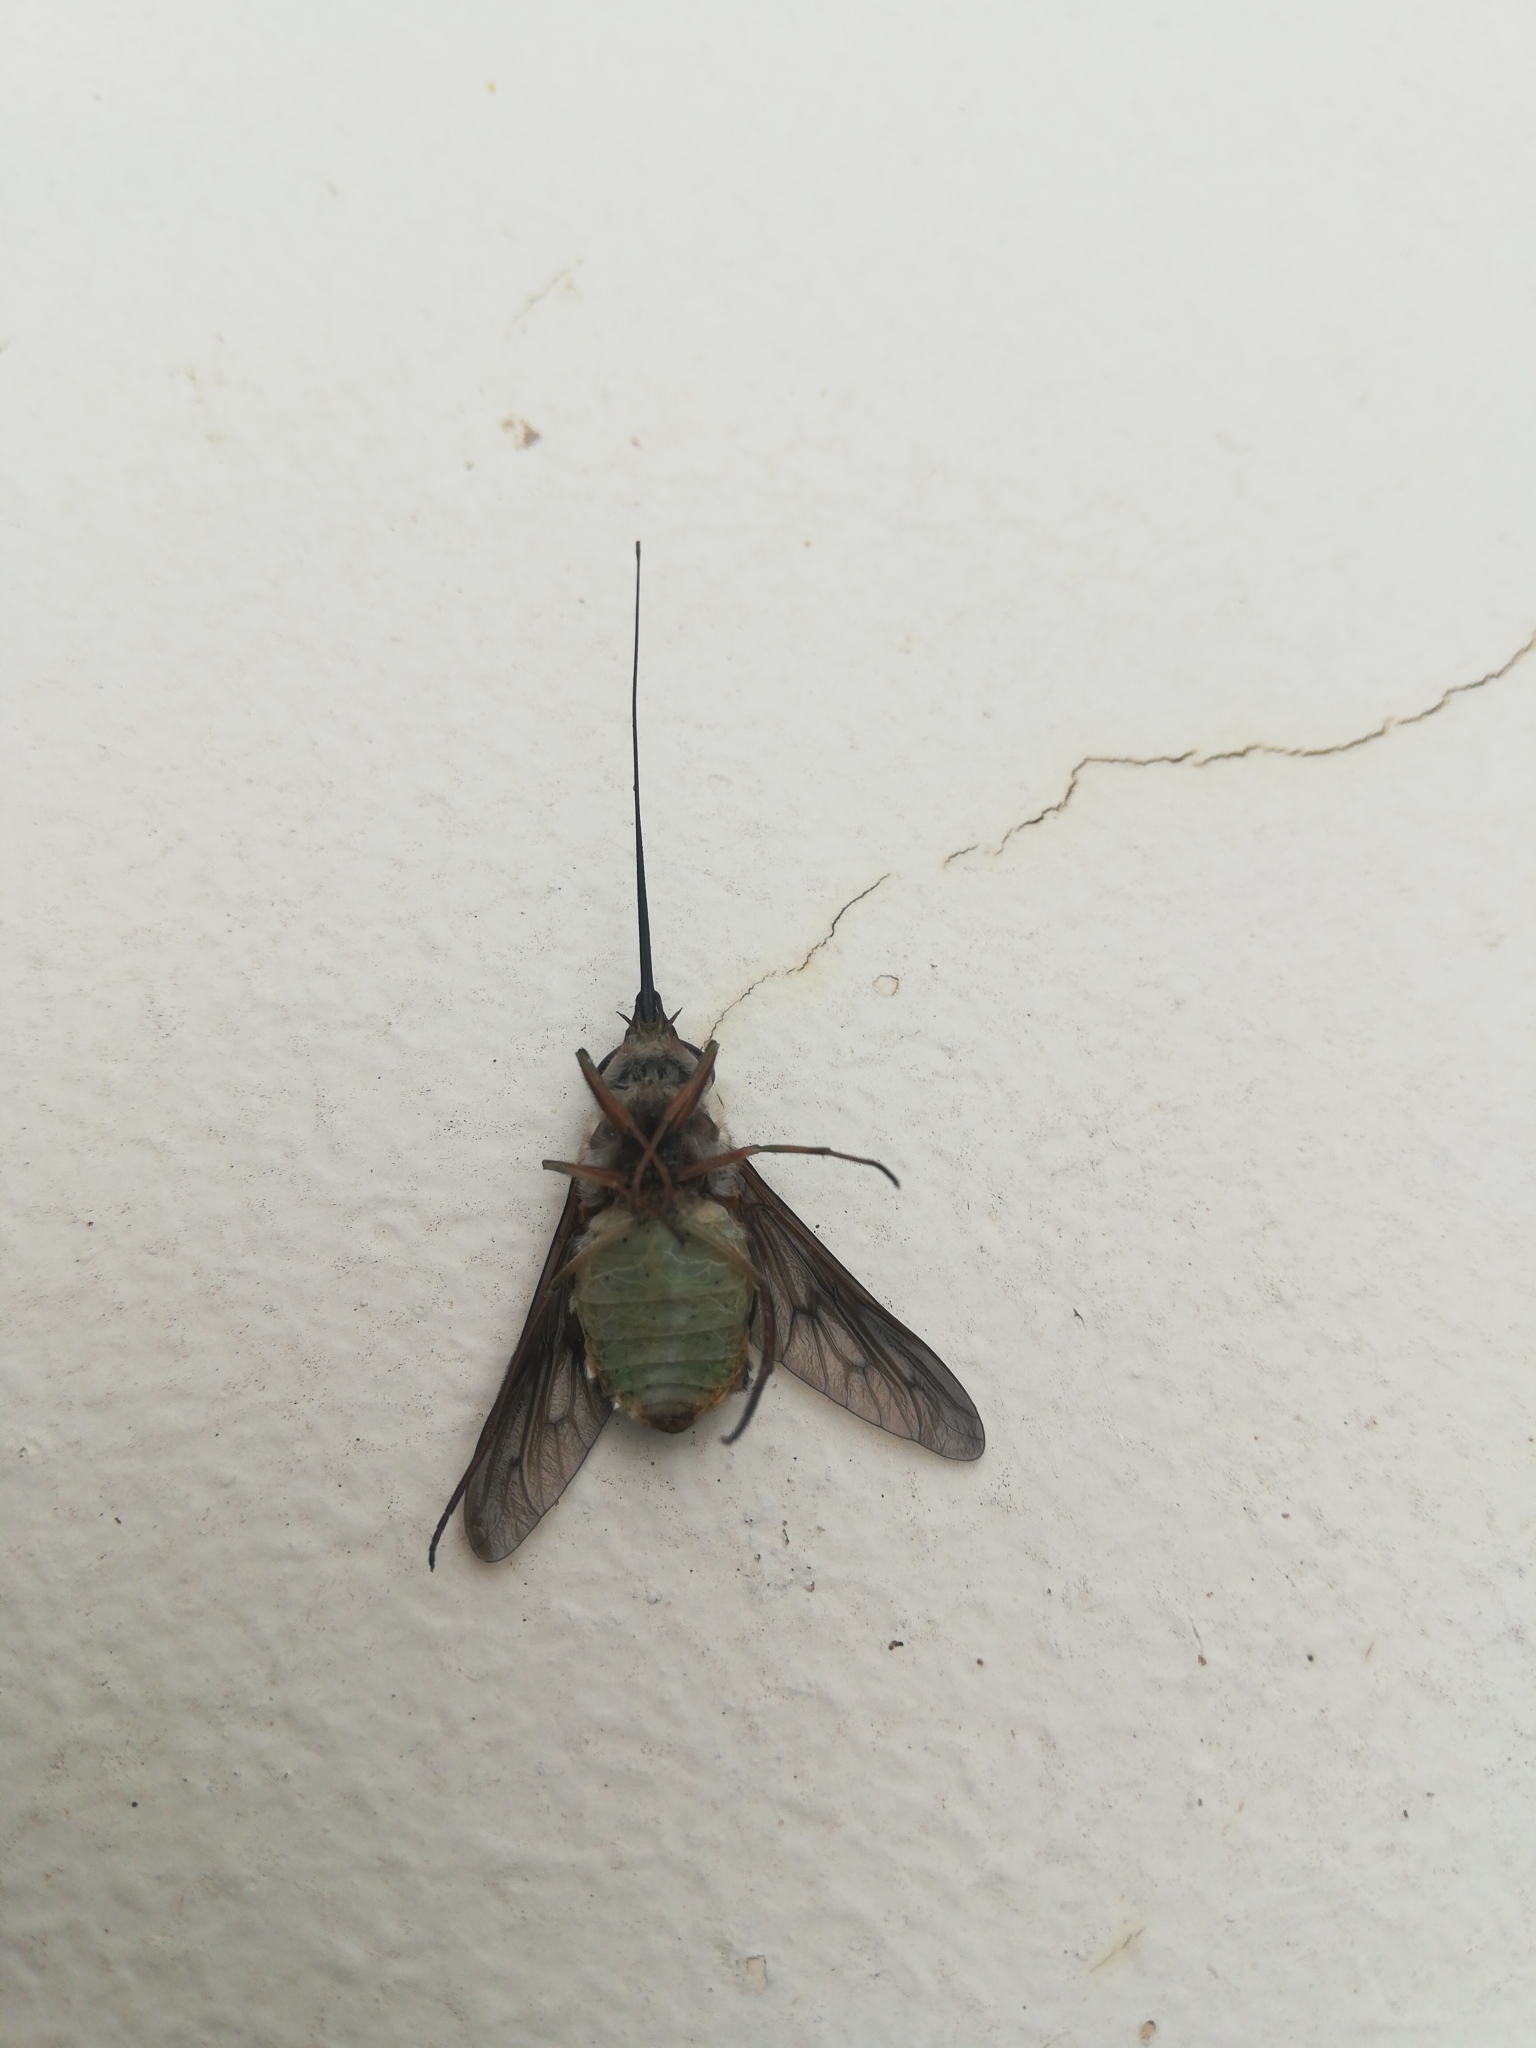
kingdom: Animalia
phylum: Arthropoda
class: Insecta
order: Diptera
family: Tabanidae
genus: Philoliche
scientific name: Philoliche umbratipennis
